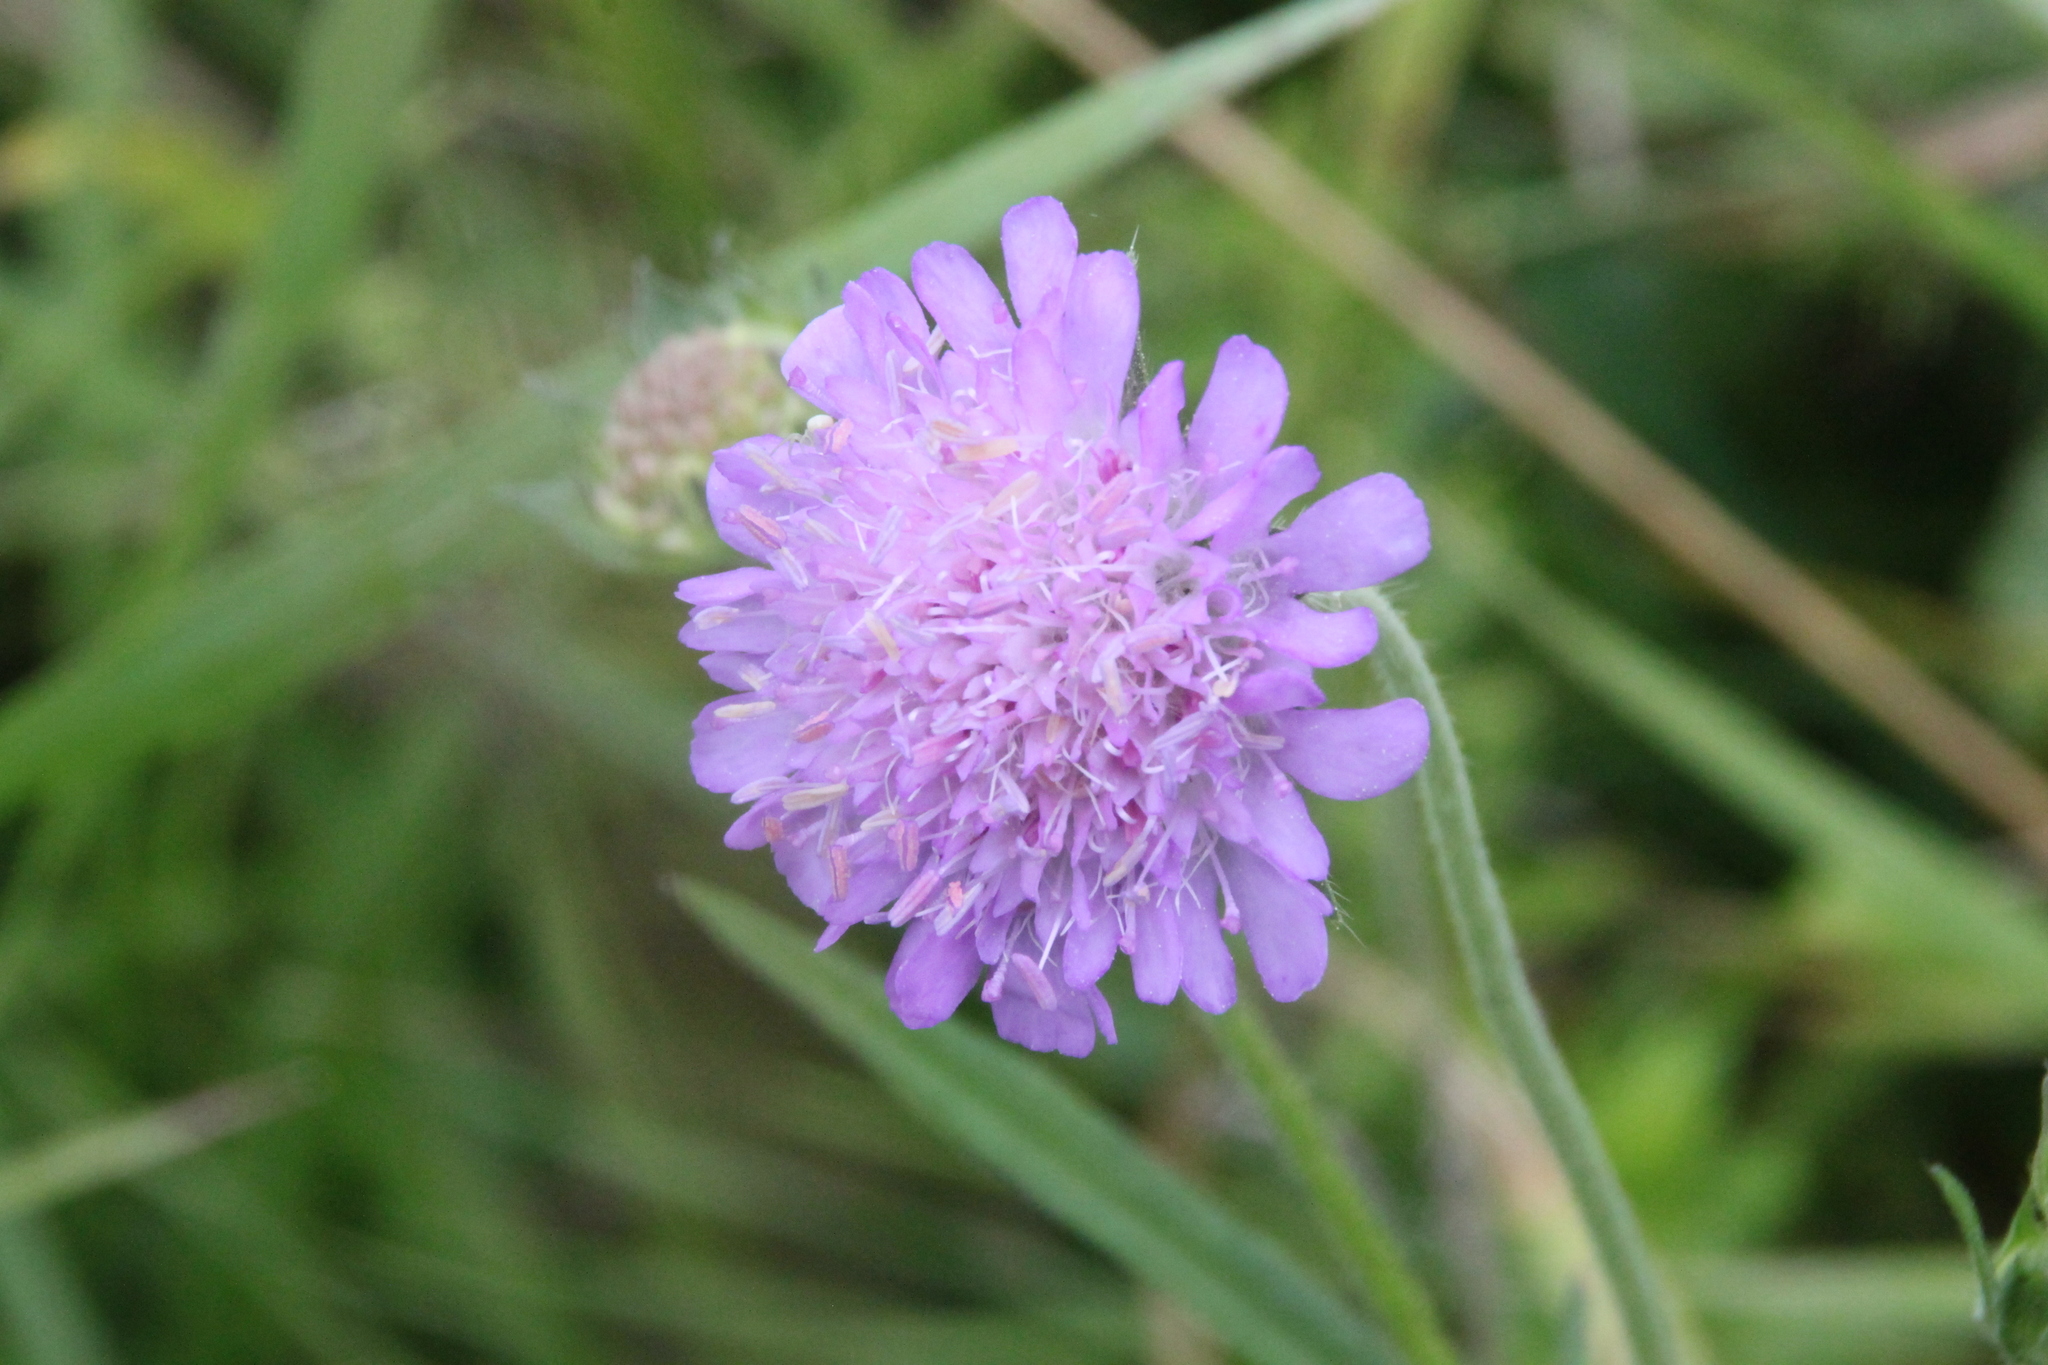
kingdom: Plantae
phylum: Tracheophyta
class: Magnoliopsida
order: Dipsacales
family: Caprifoliaceae
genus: Knautia
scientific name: Knautia arvensis
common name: Field scabiosa
